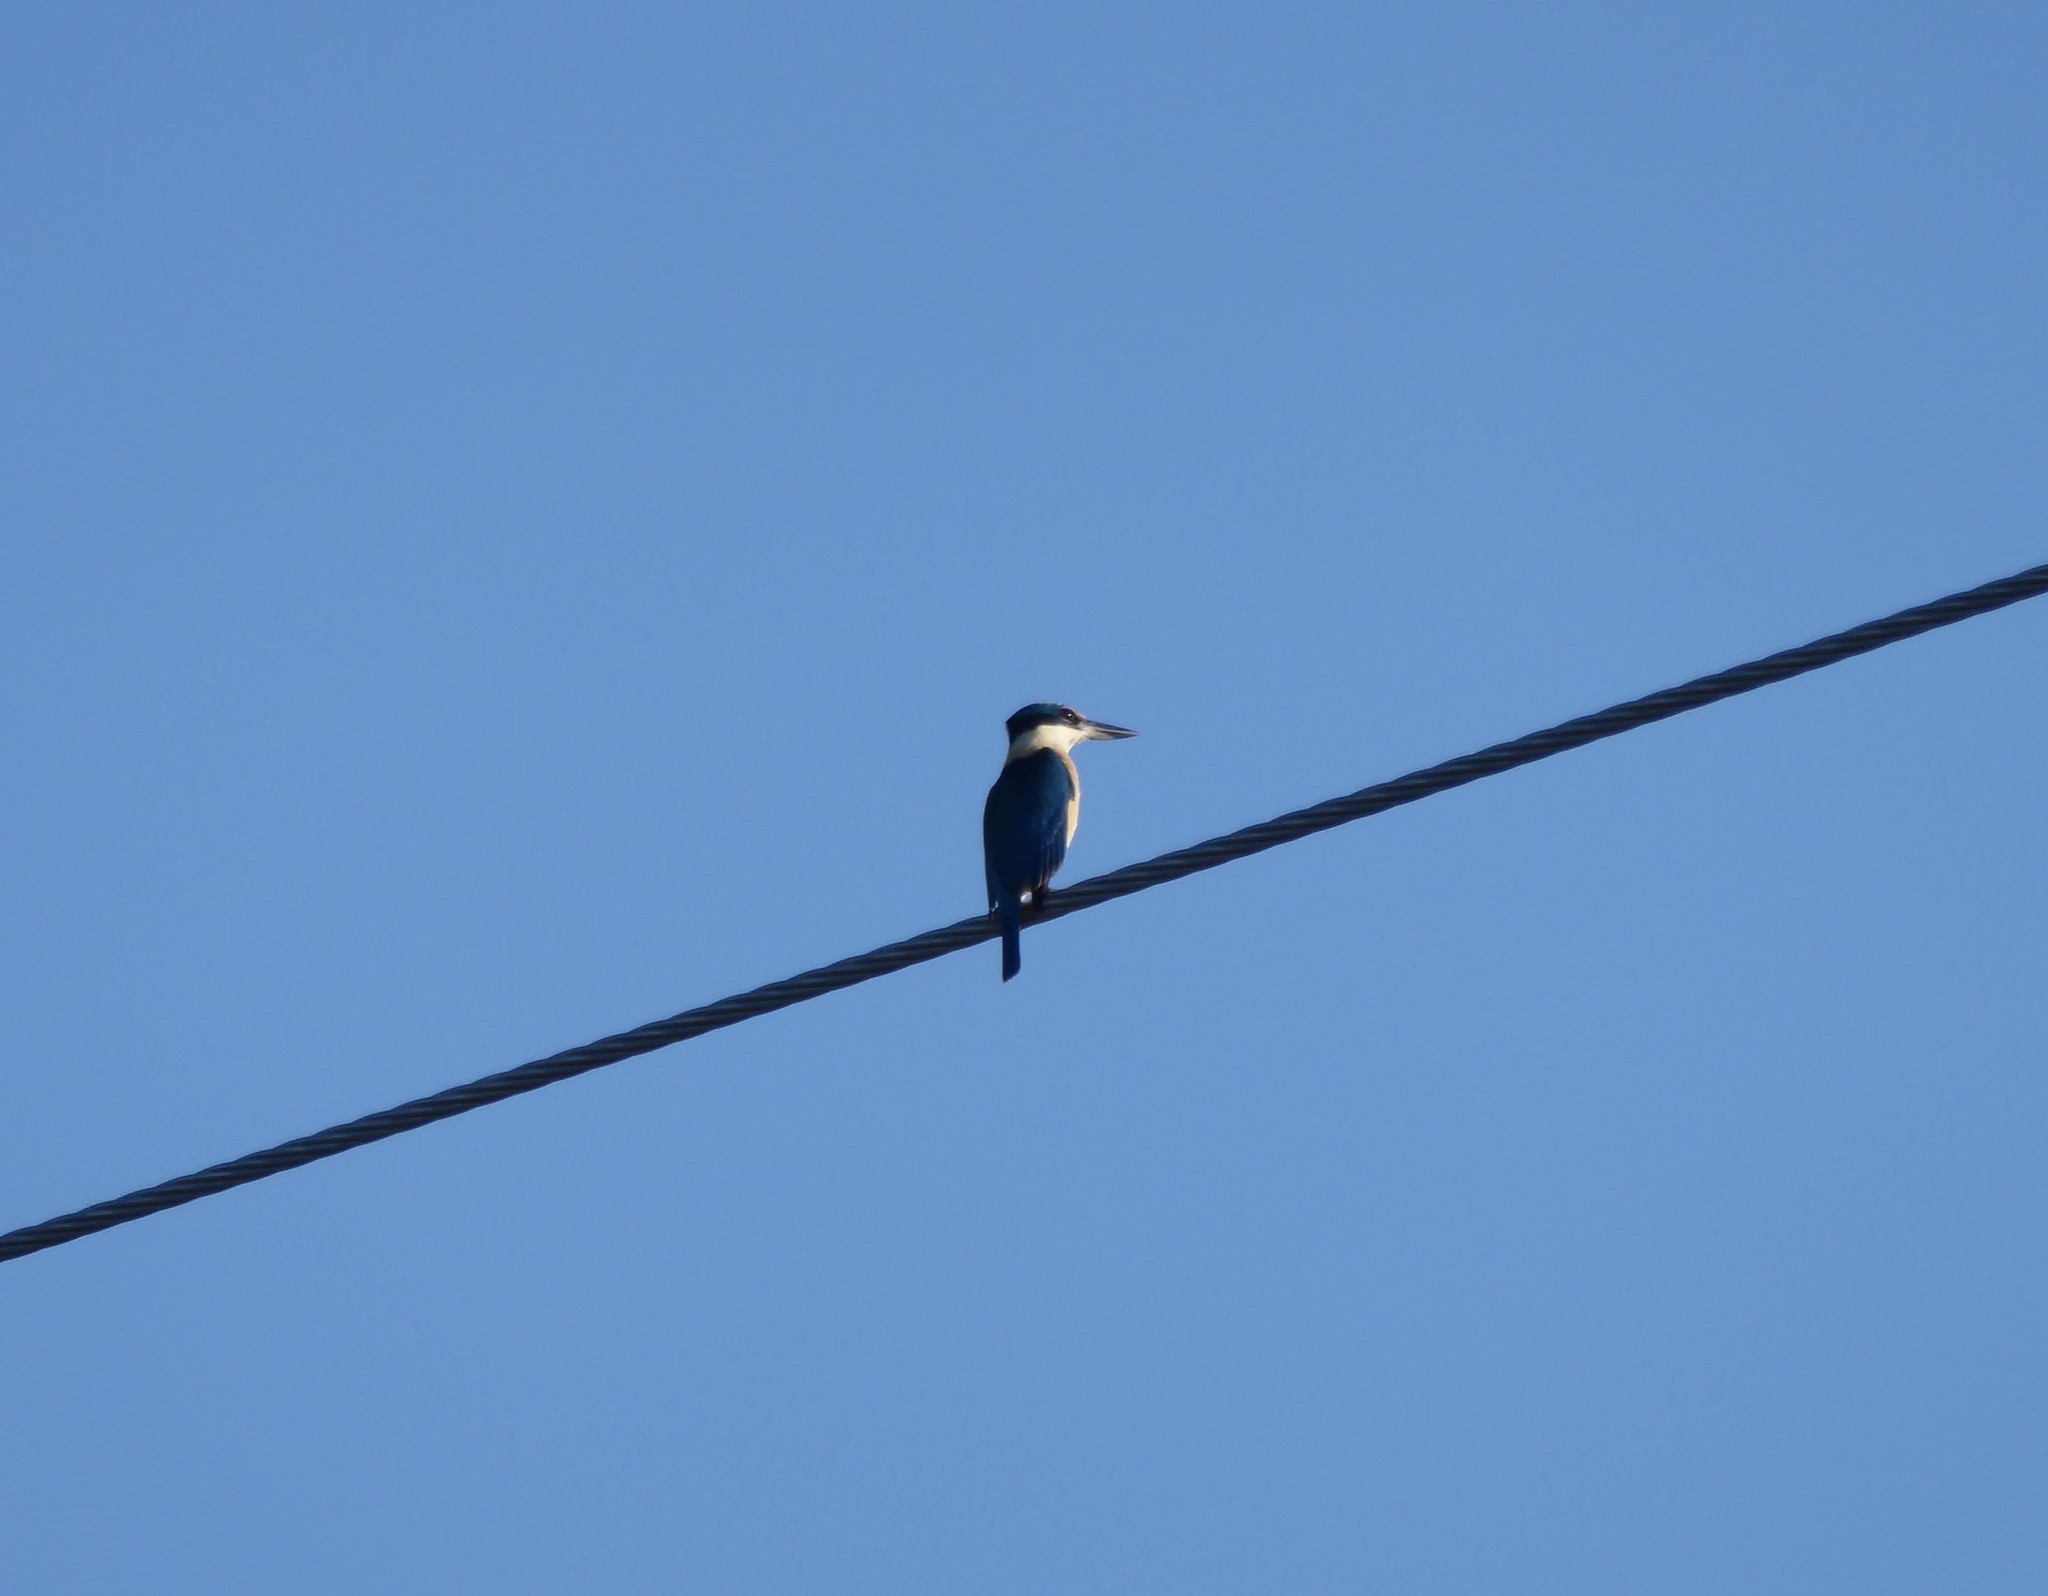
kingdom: Animalia
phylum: Chordata
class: Aves
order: Coraciiformes
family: Alcedinidae
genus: Todiramphus
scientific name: Todiramphus macleayii
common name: Forest kingfisher
